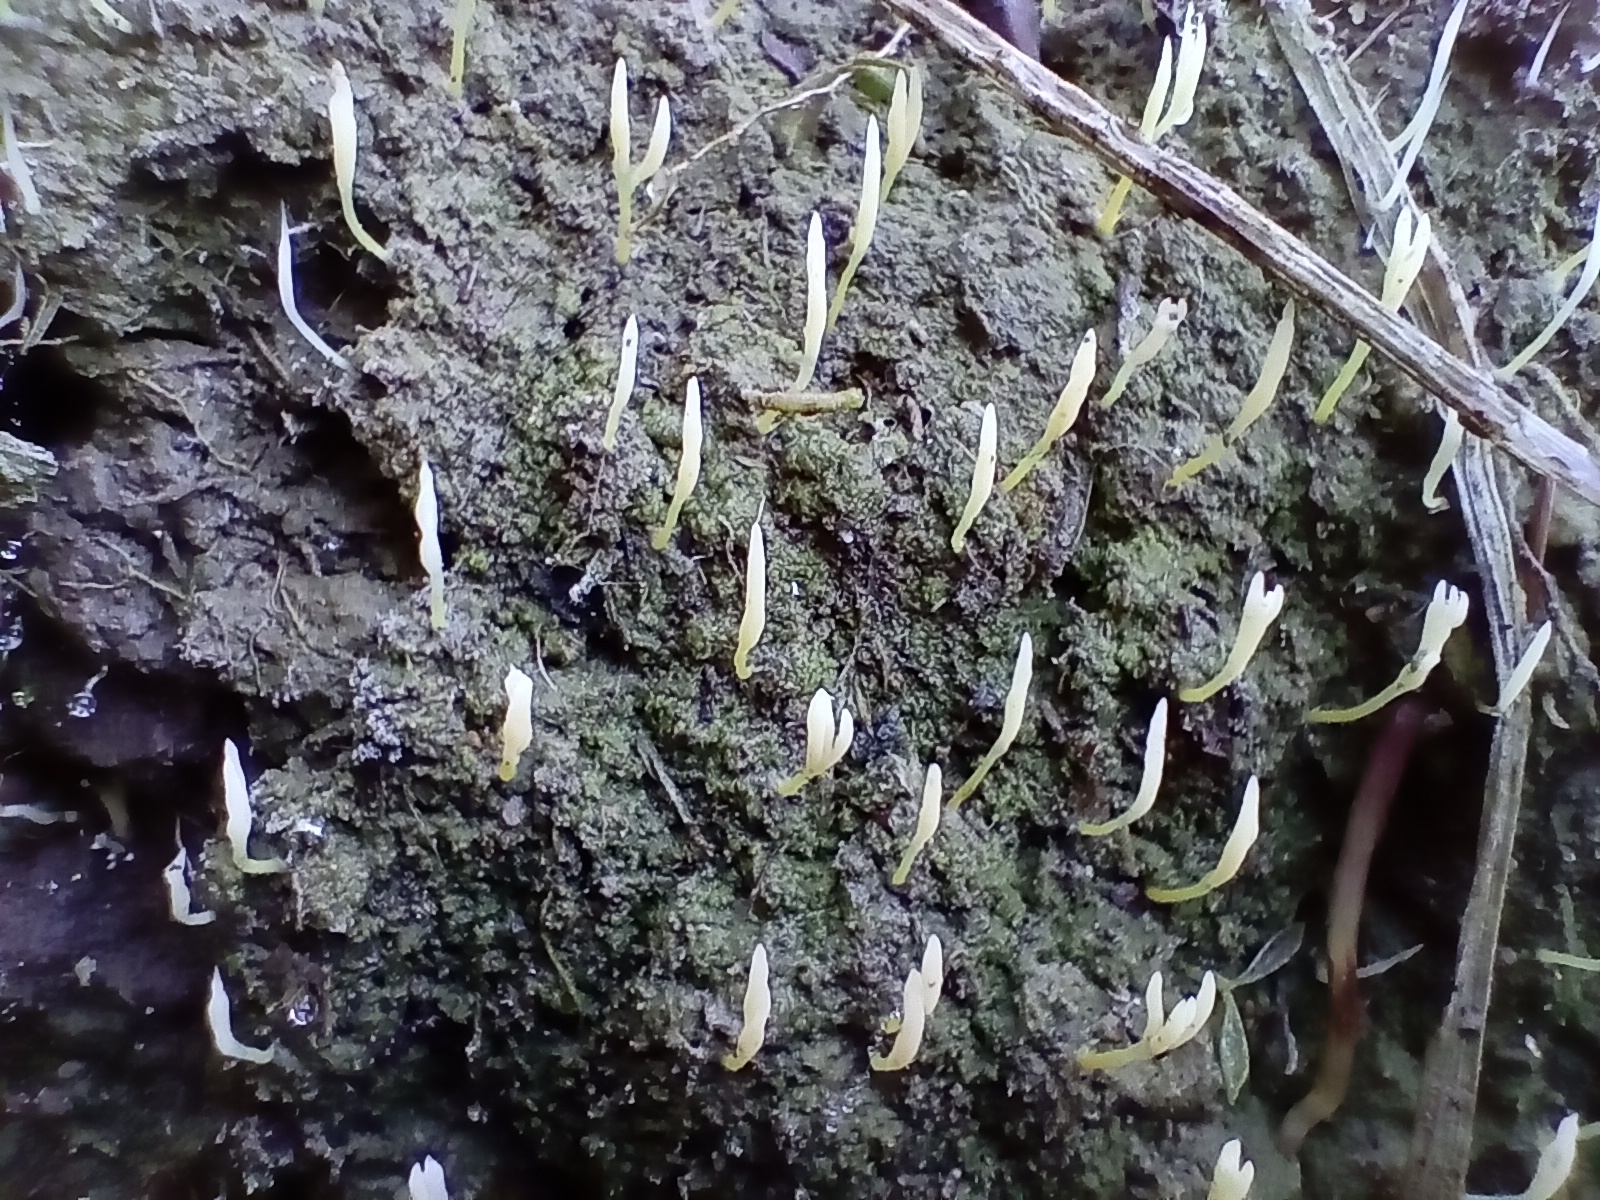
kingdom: Fungi
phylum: Basidiomycota
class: Agaricomycetes
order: Cantharellales
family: Hydnaceae
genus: Multiclavula
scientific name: Multiclavula mucida
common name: White green-algae coral
